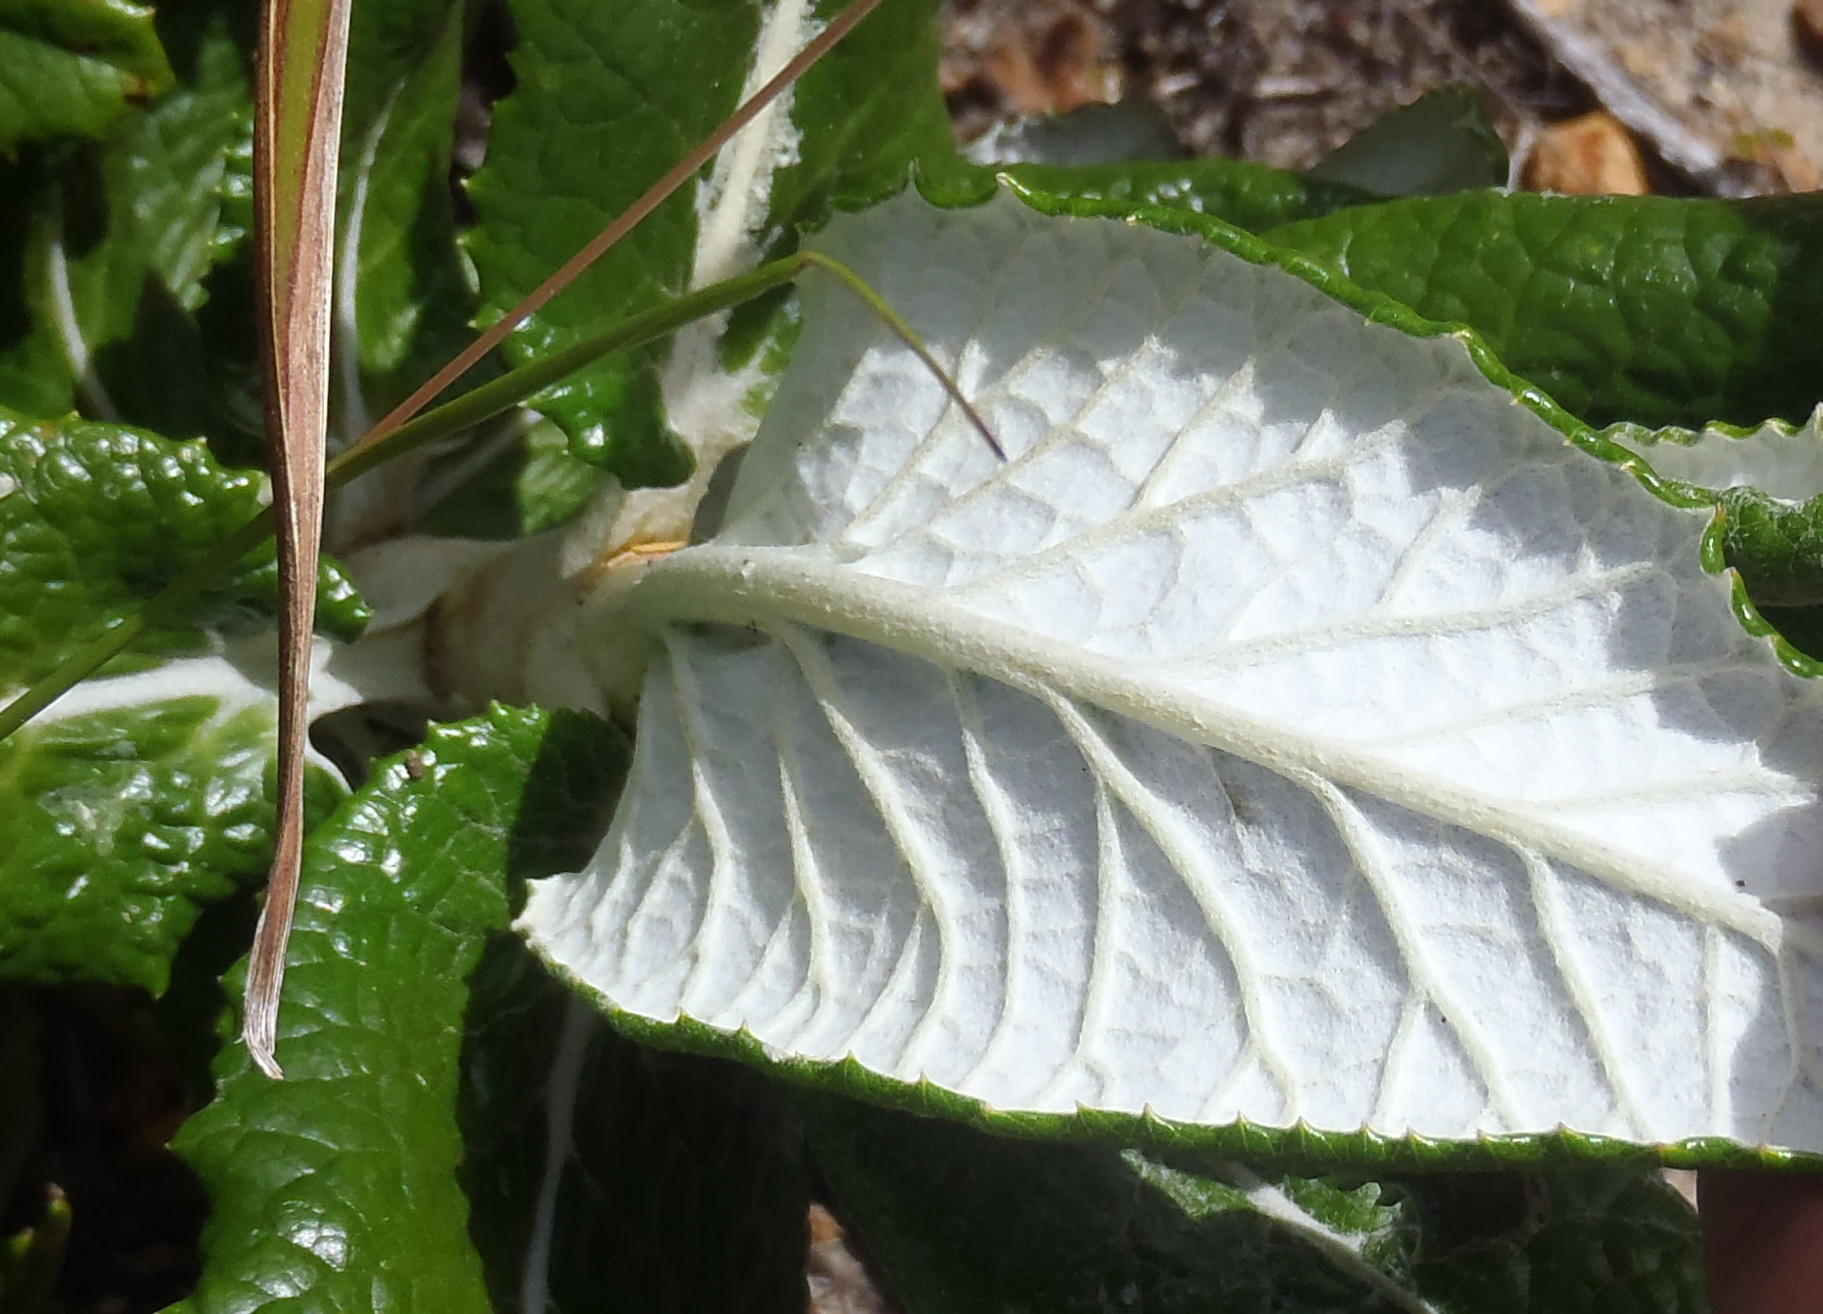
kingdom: Plantae
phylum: Tracheophyta
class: Magnoliopsida
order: Apiales
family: Apiaceae
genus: Hermas
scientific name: Hermas villosa
